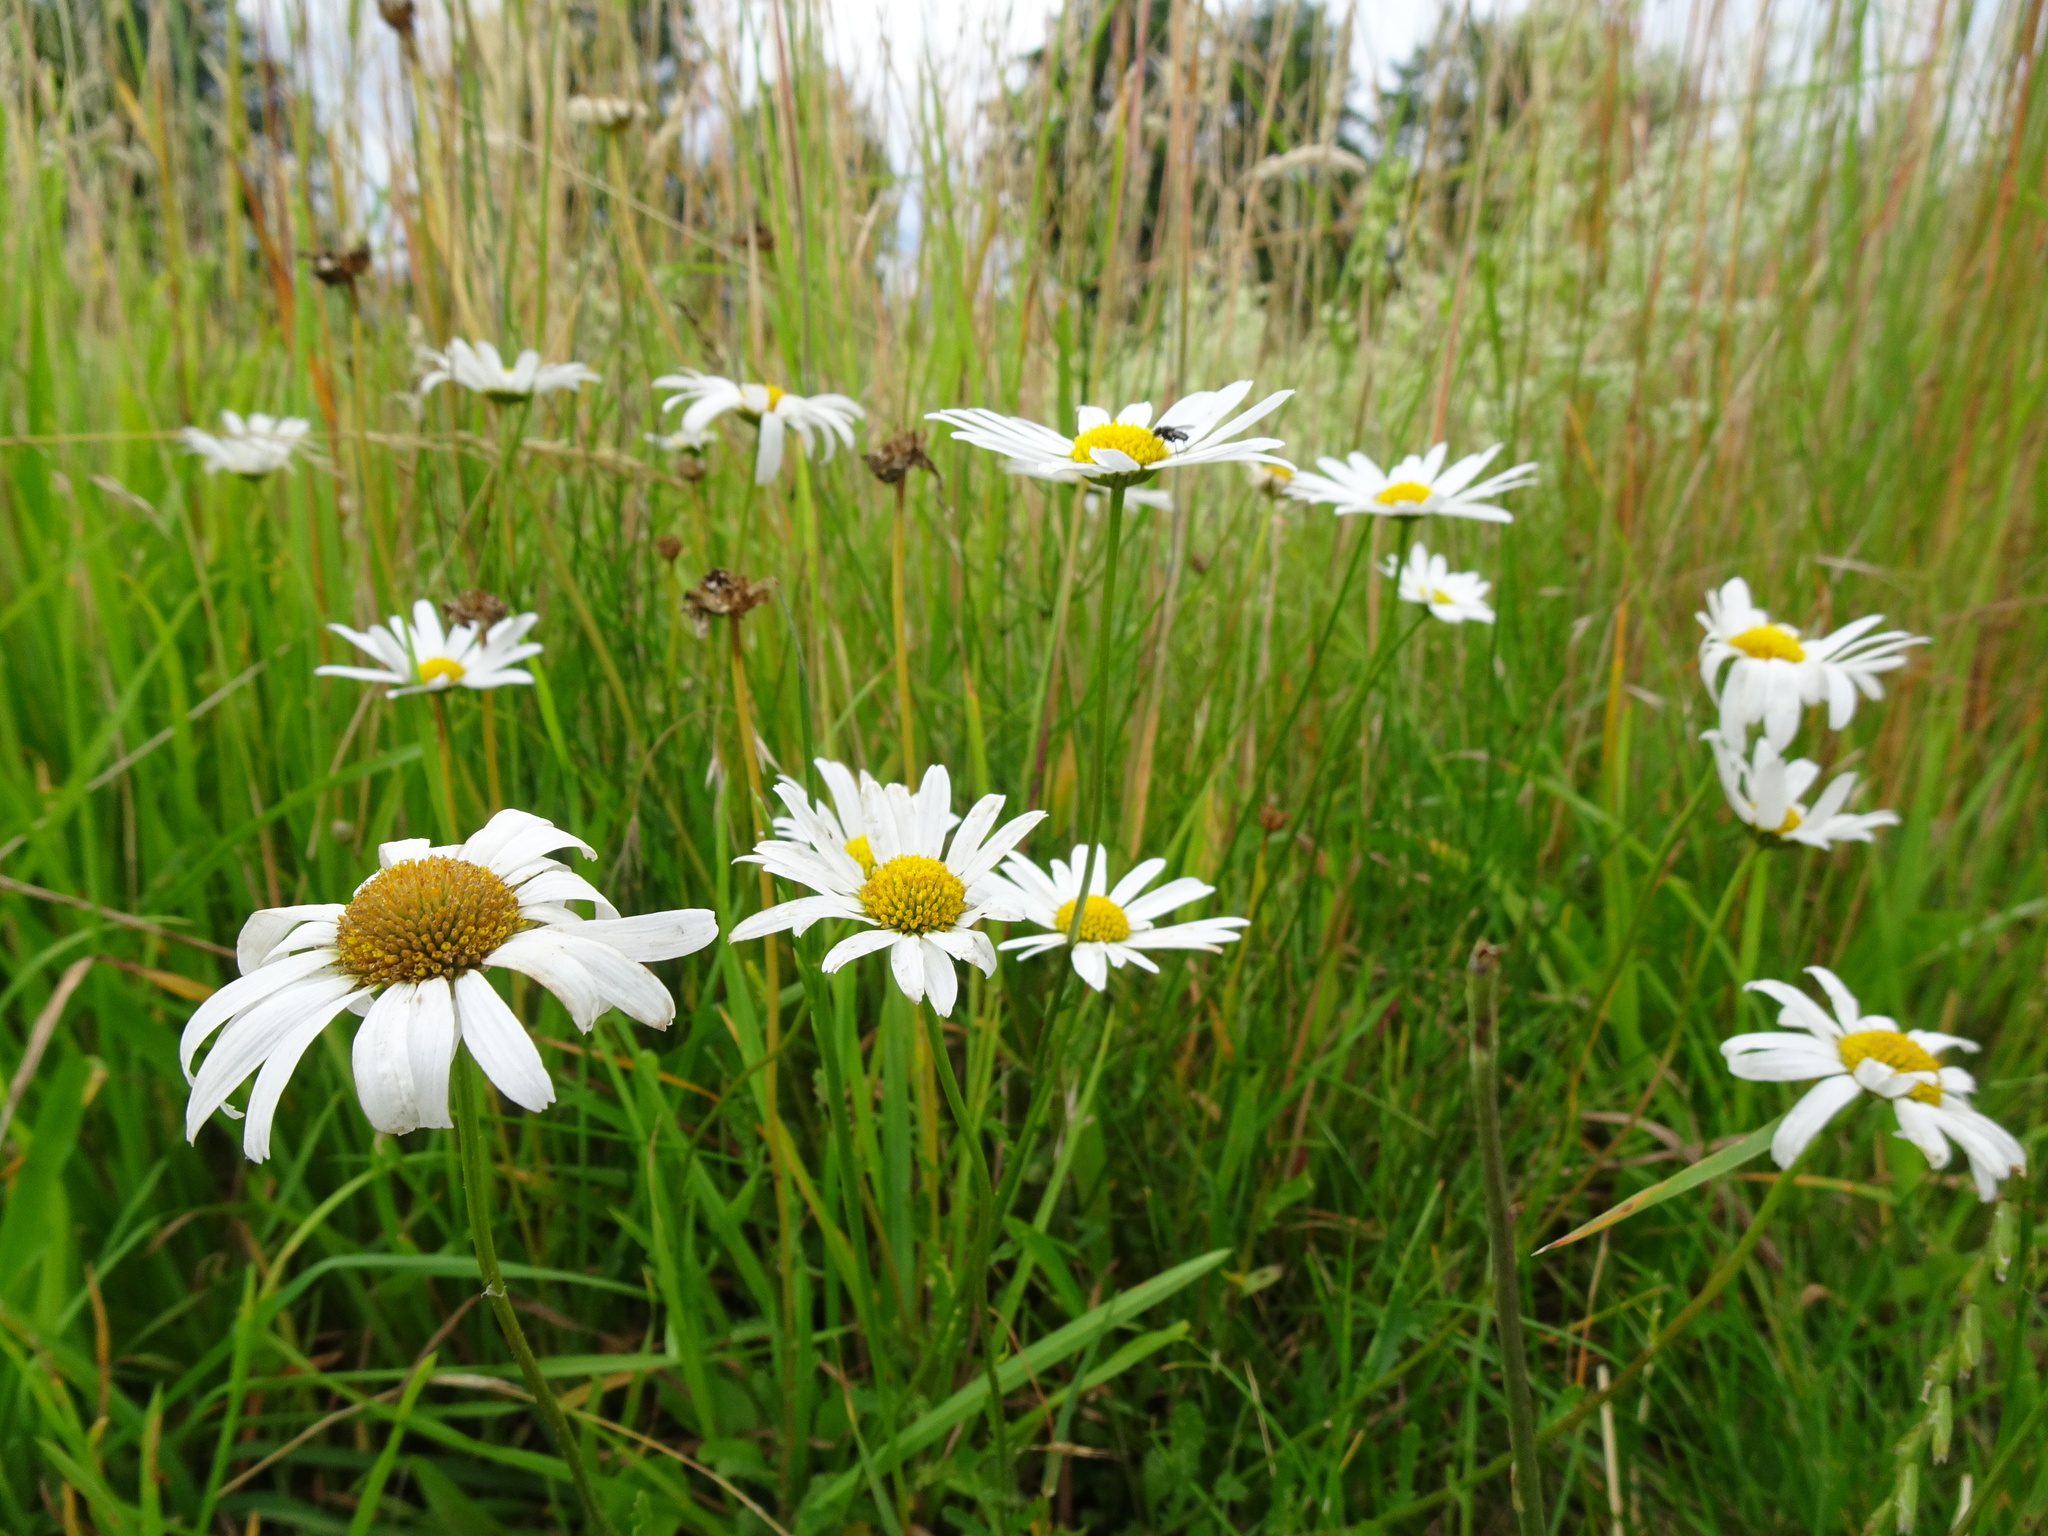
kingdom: Plantae
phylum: Tracheophyta
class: Magnoliopsida
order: Asterales
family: Asteraceae
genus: Leucanthemum
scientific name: Leucanthemum vulgare
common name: Oxeye daisy
